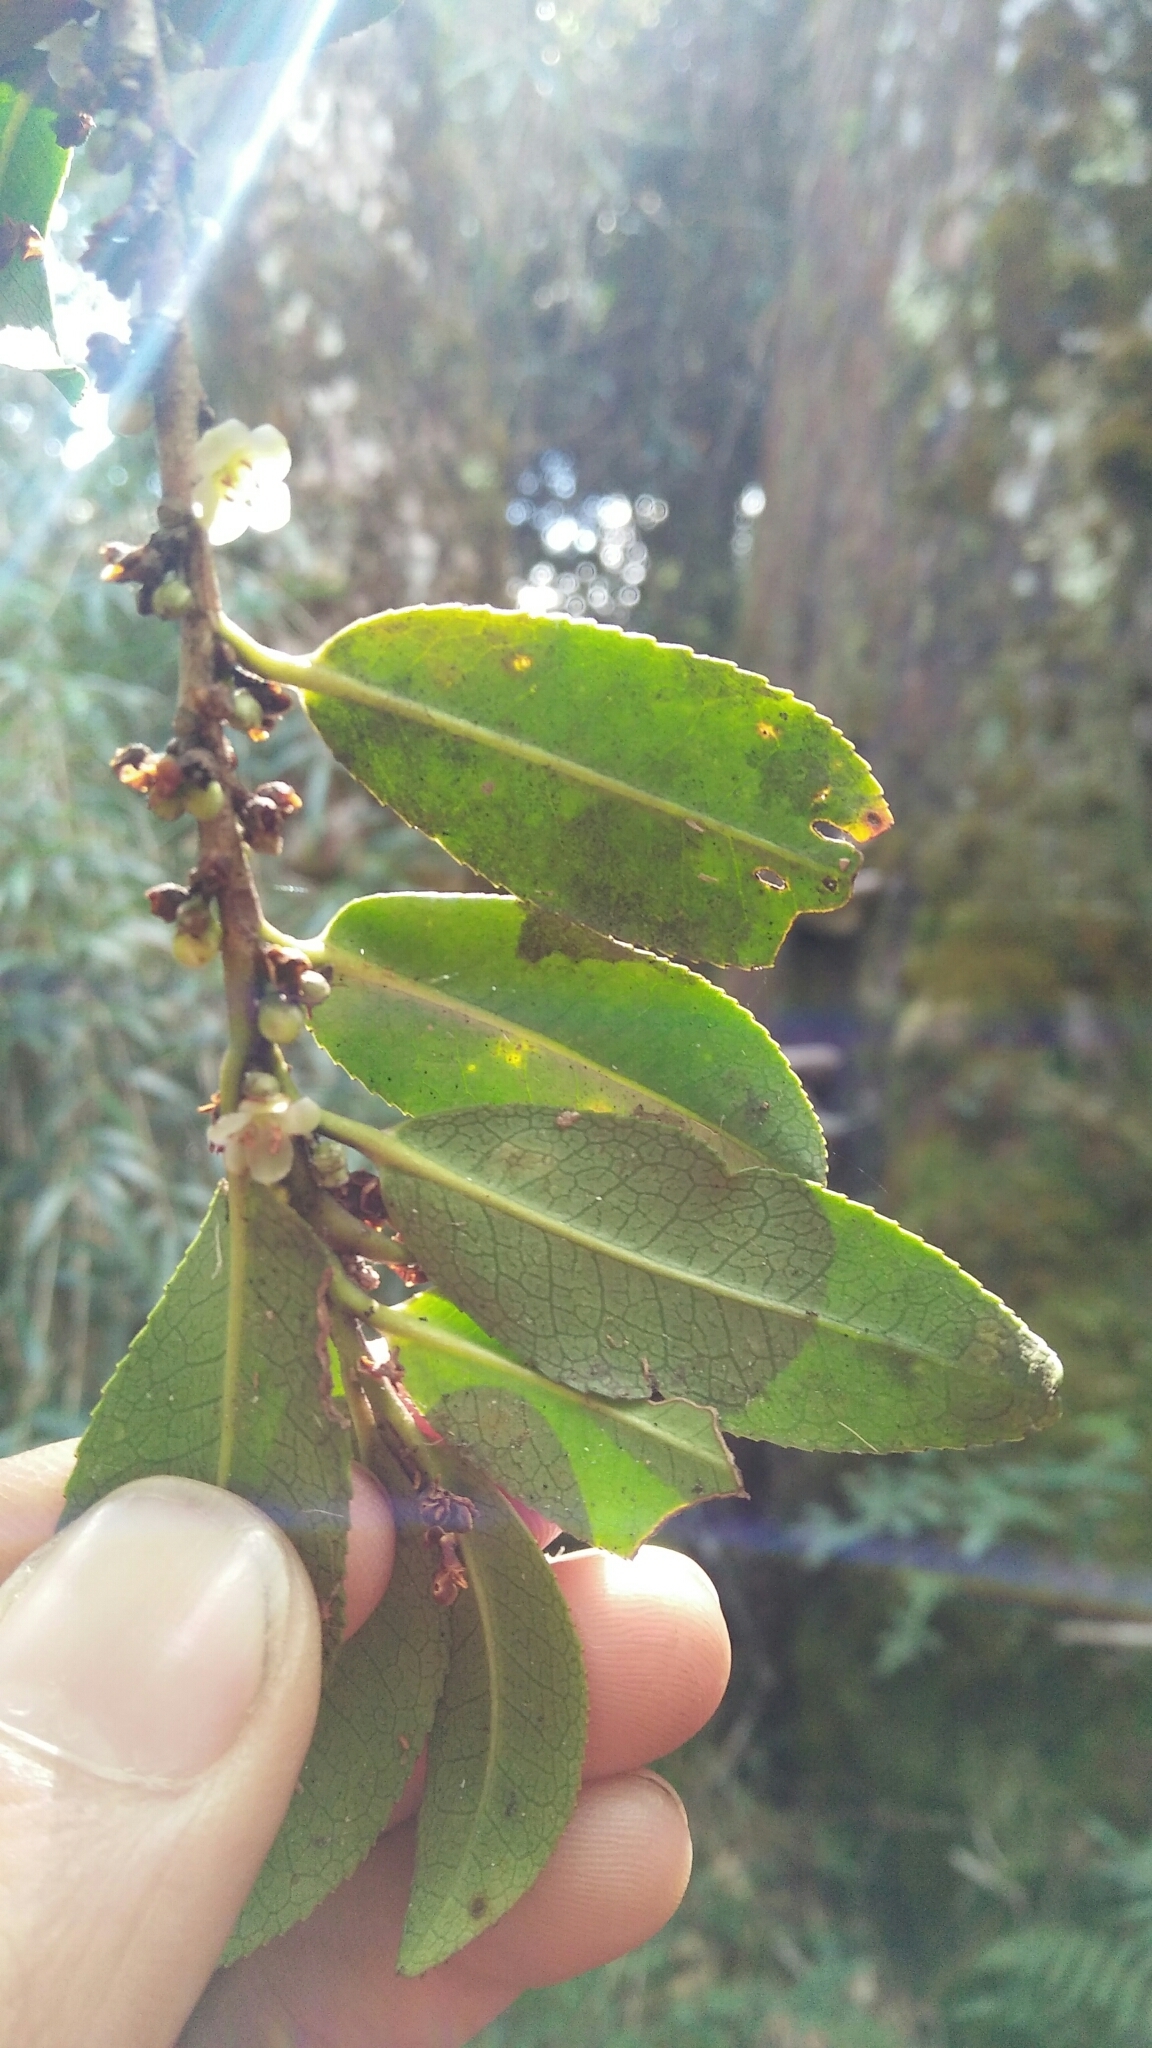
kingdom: Plantae
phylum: Tracheophyta
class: Magnoliopsida
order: Ericales
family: Pentaphylacaceae
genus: Eurya
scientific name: Eurya glaberrima
